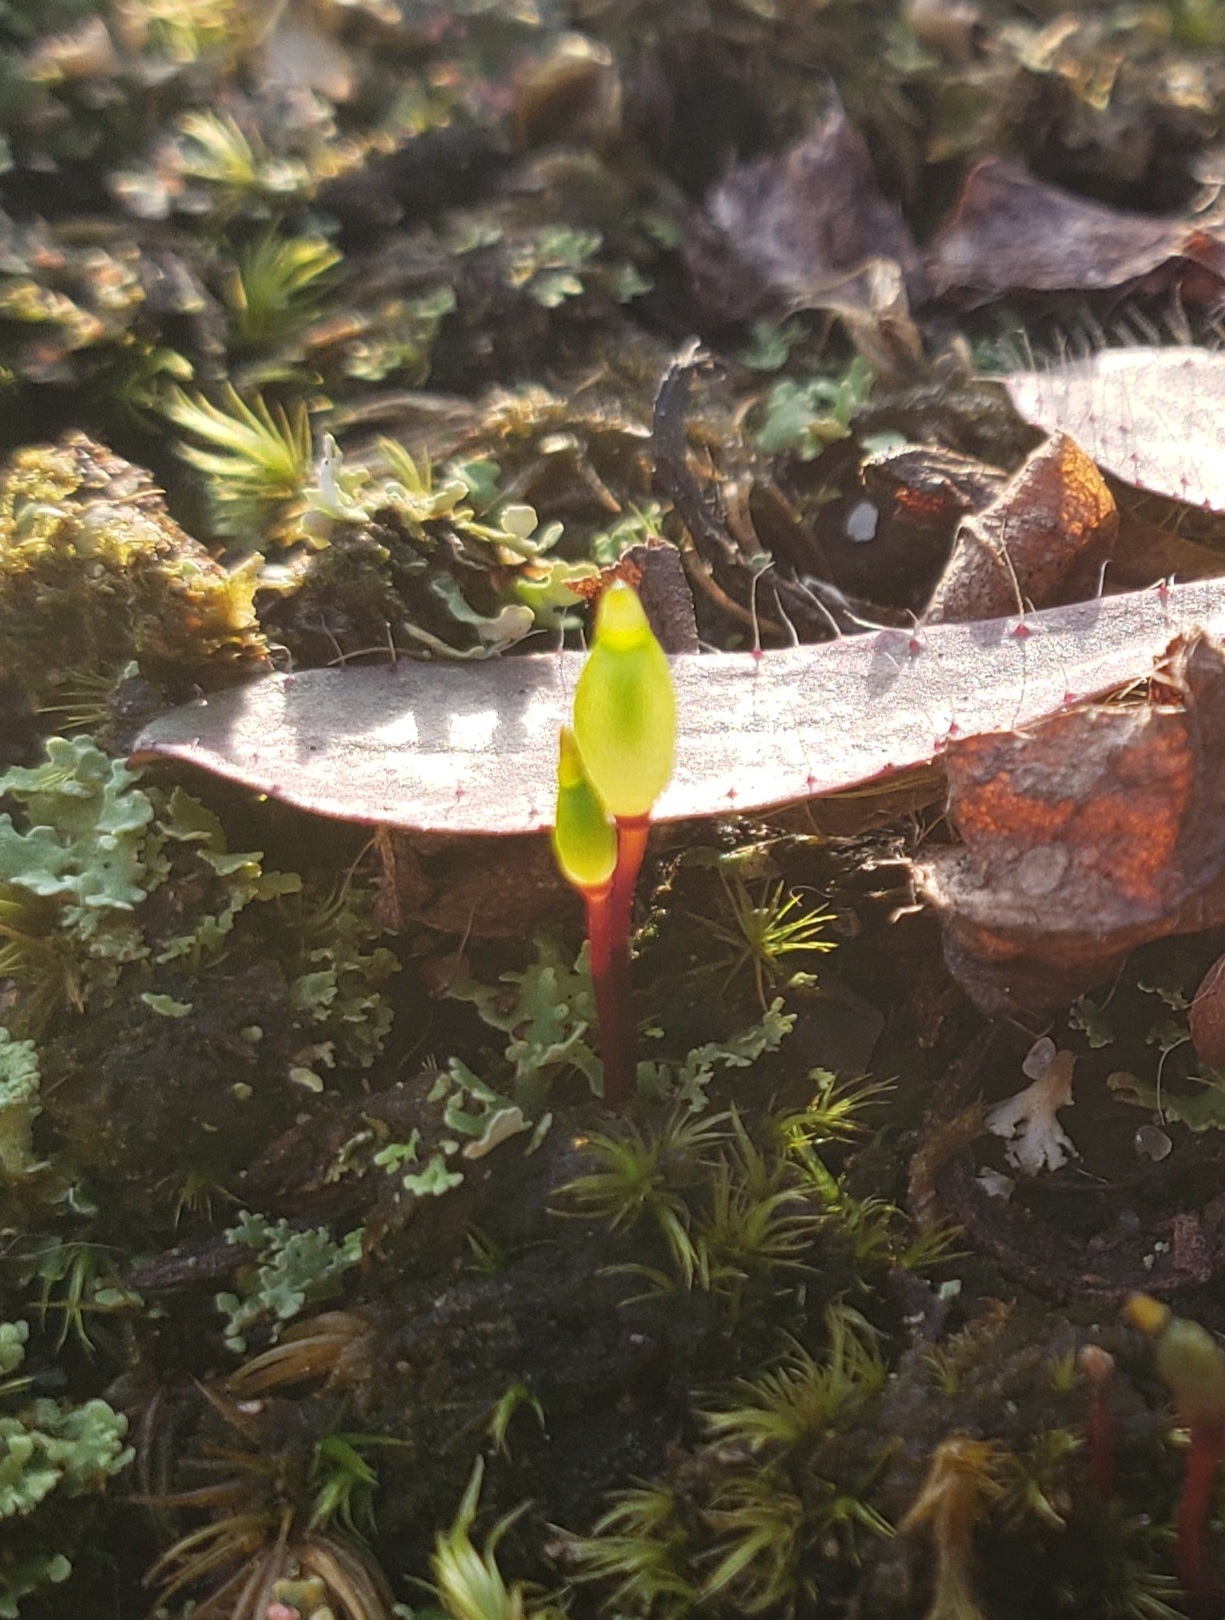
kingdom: Plantae
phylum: Bryophyta
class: Bryopsida
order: Buxbaumiales
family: Buxbaumiaceae
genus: Buxbaumia
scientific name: Buxbaumia aphylla
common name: Brown shield-moss
